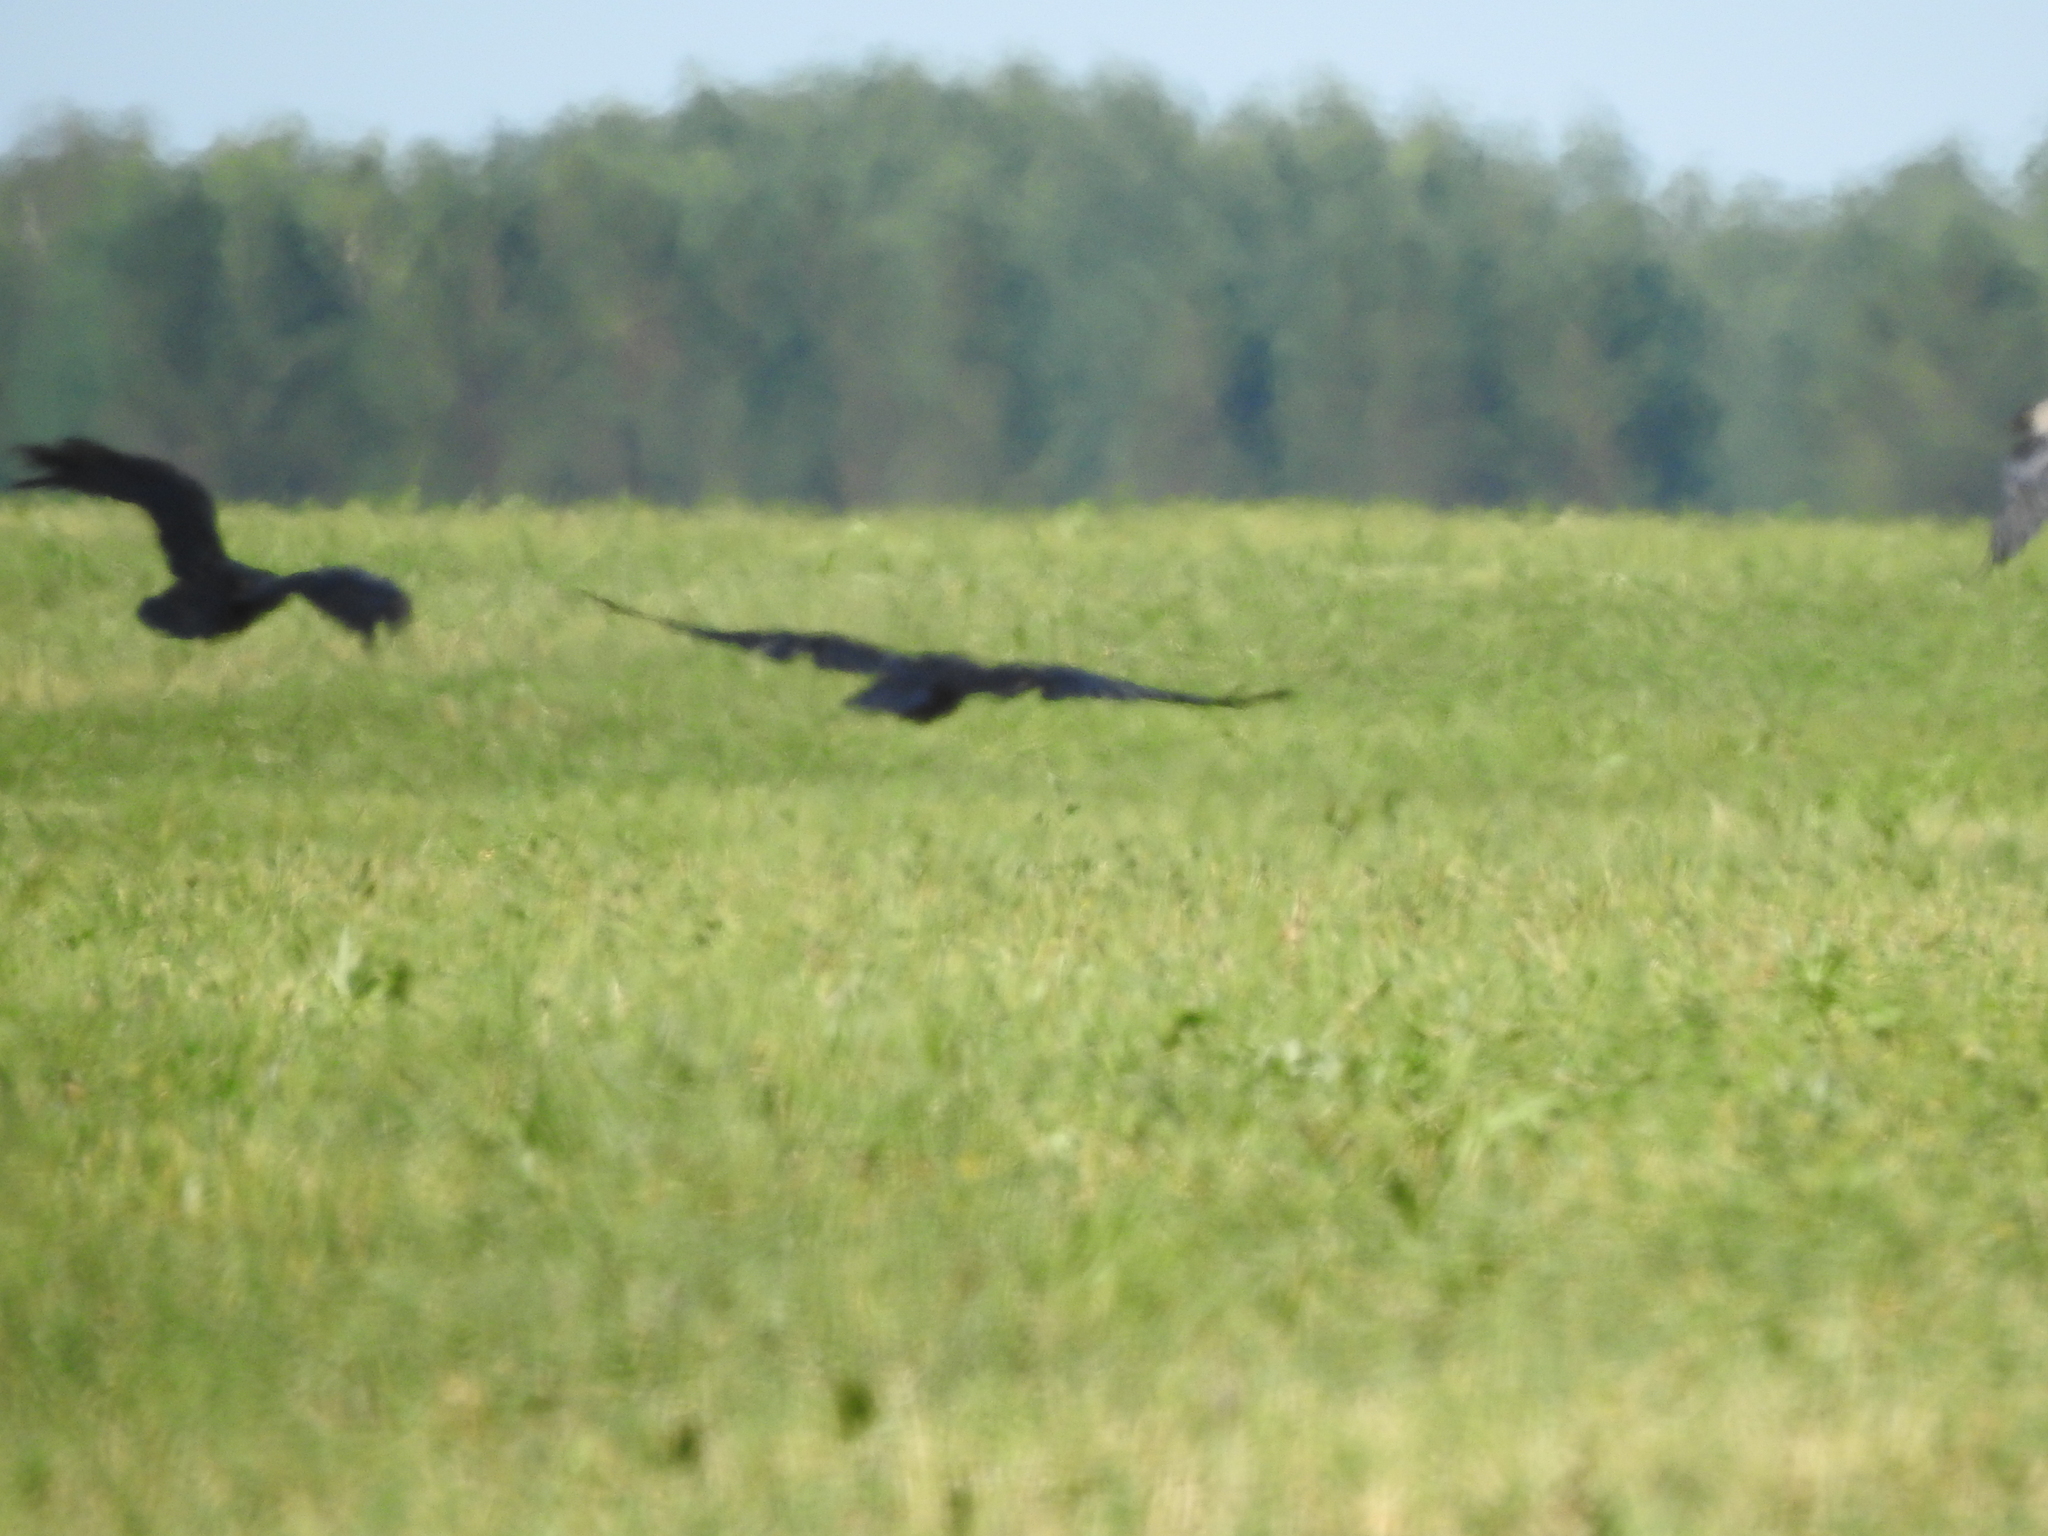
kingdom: Animalia
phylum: Chordata
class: Aves
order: Passeriformes
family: Corvidae
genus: Corvus
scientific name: Corvus corax
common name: Common raven
